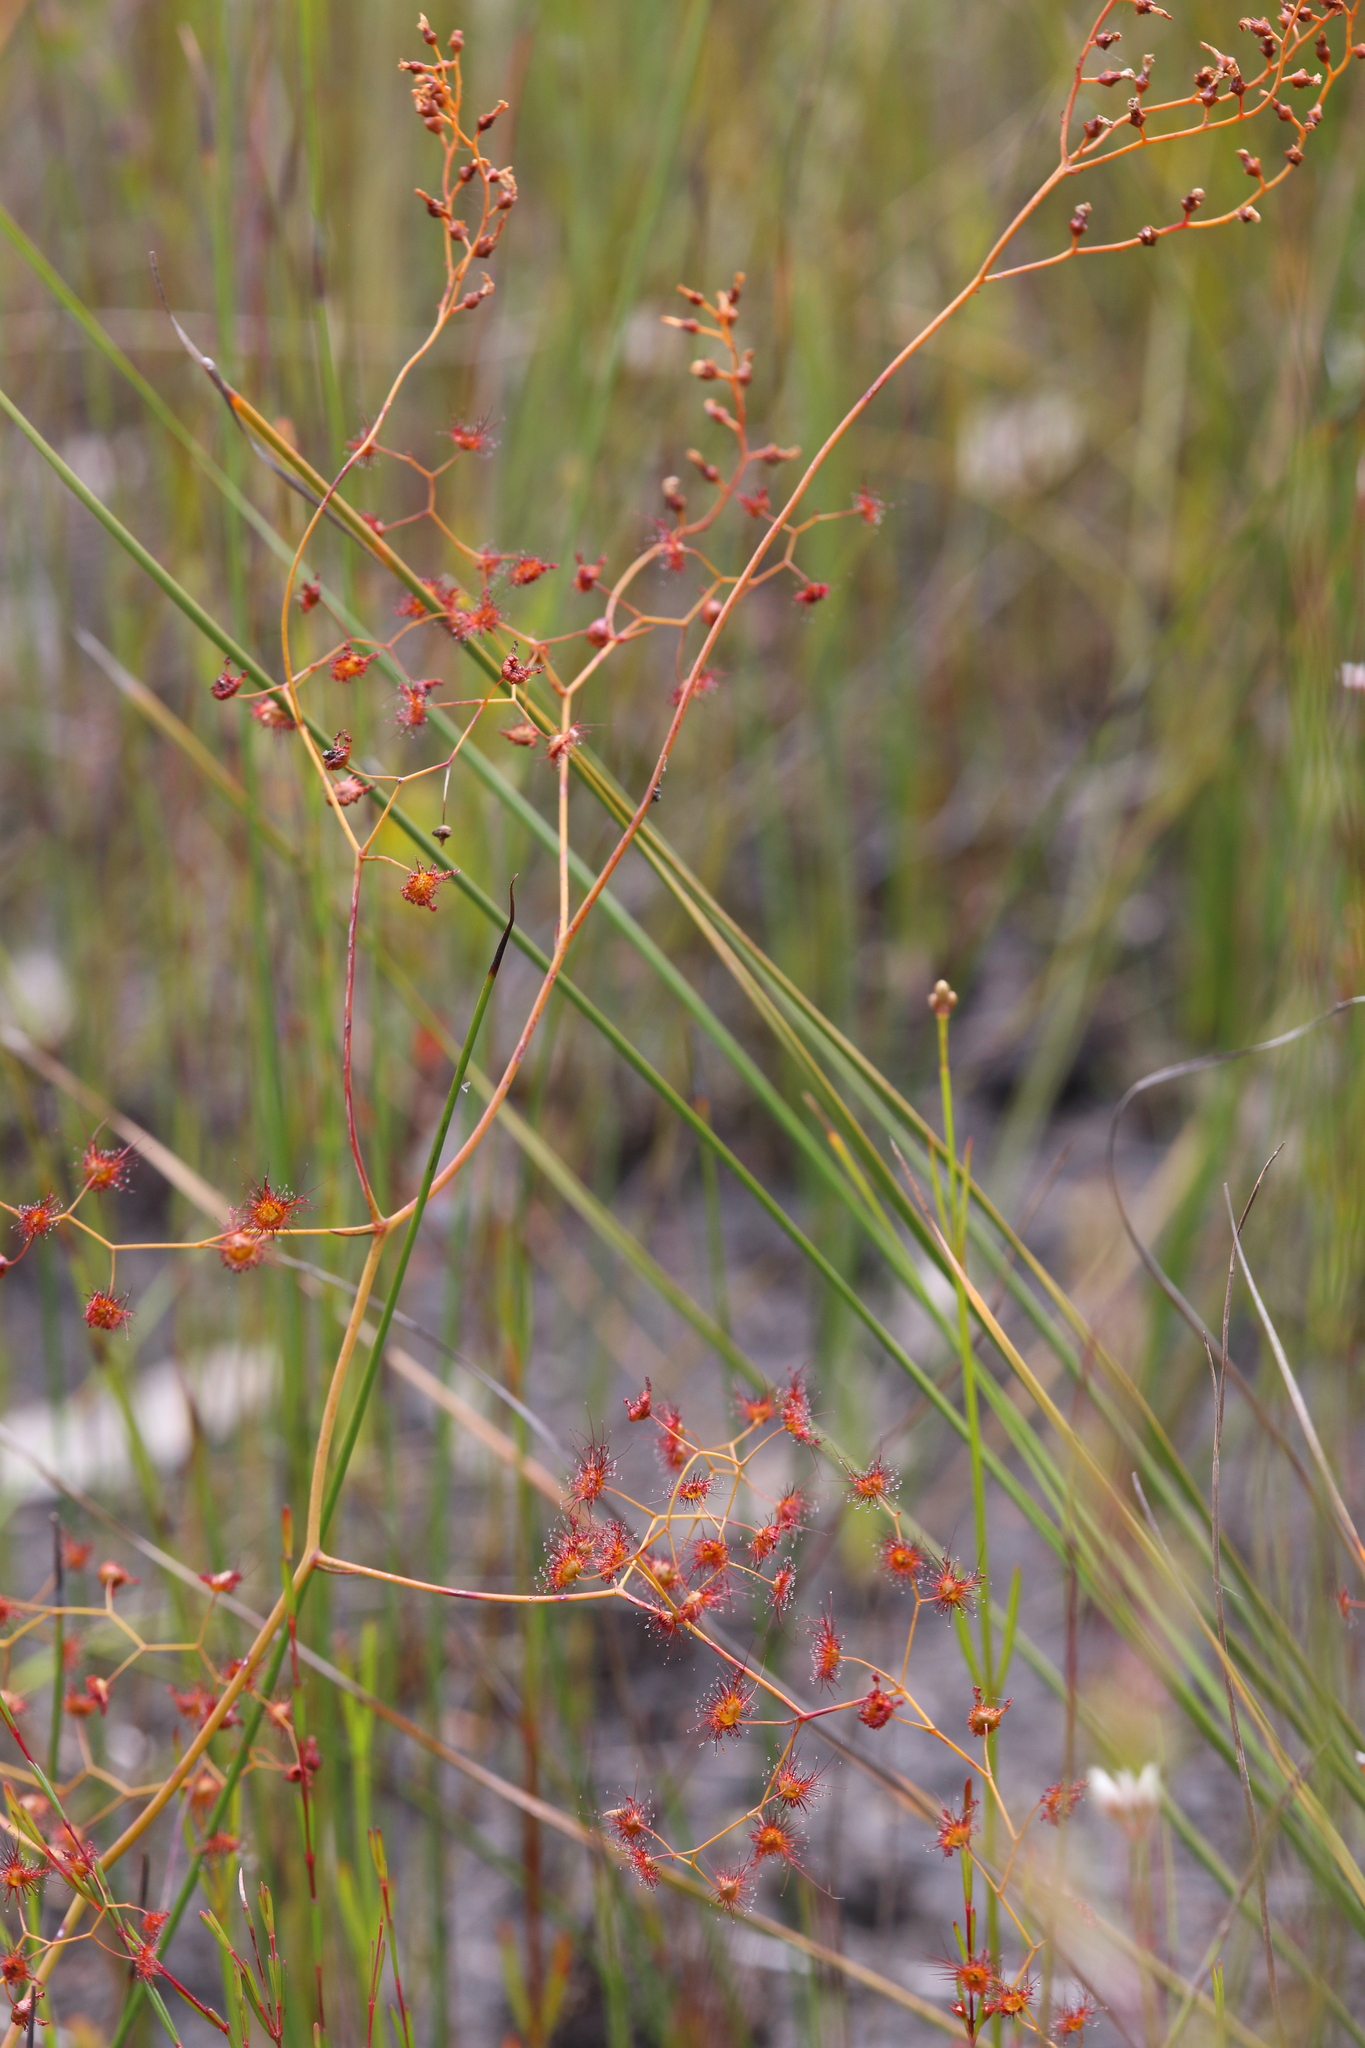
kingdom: Plantae
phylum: Tracheophyta
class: Magnoliopsida
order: Caryophyllales
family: Droseraceae
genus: Drosera
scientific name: Drosera gigantea
